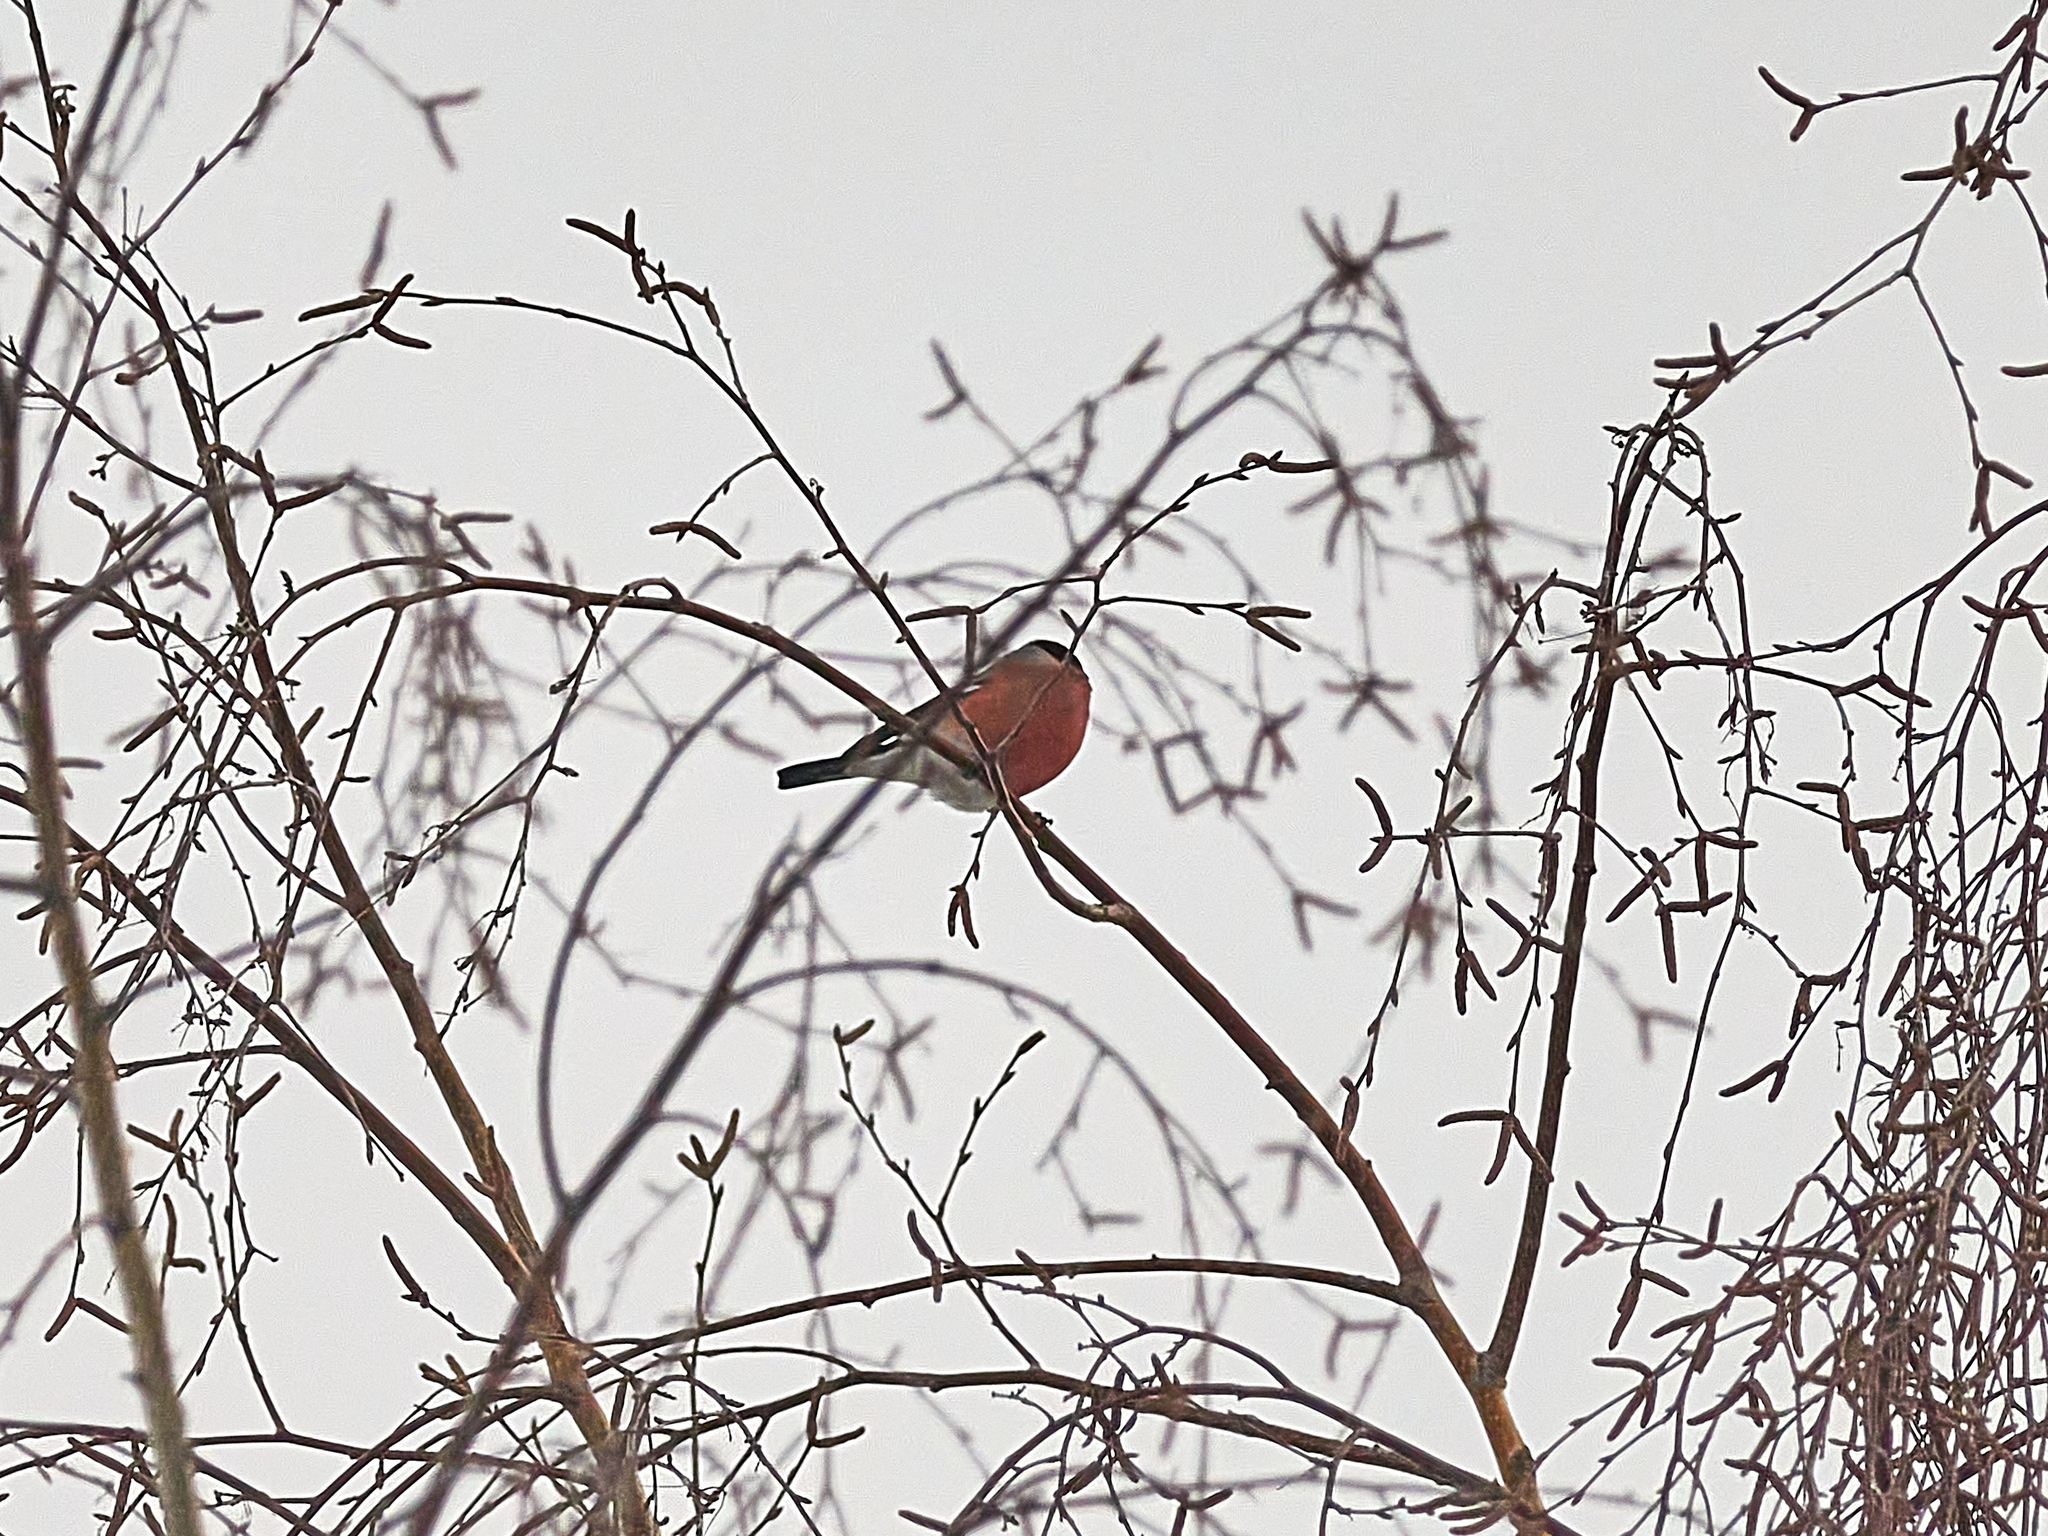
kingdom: Animalia
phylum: Chordata
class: Aves
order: Passeriformes
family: Fringillidae
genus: Pyrrhula
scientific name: Pyrrhula pyrrhula
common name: Eurasian bullfinch
